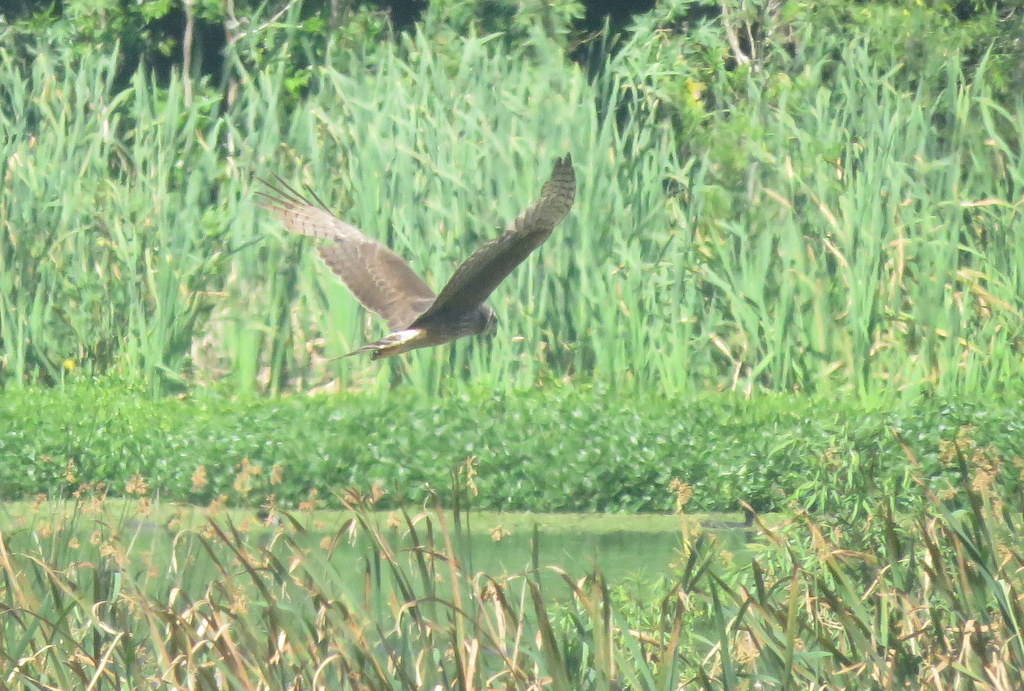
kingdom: Animalia
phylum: Chordata
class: Aves
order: Accipitriformes
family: Accipitridae
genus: Circus
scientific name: Circus buffoni
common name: Long-winged harrier
